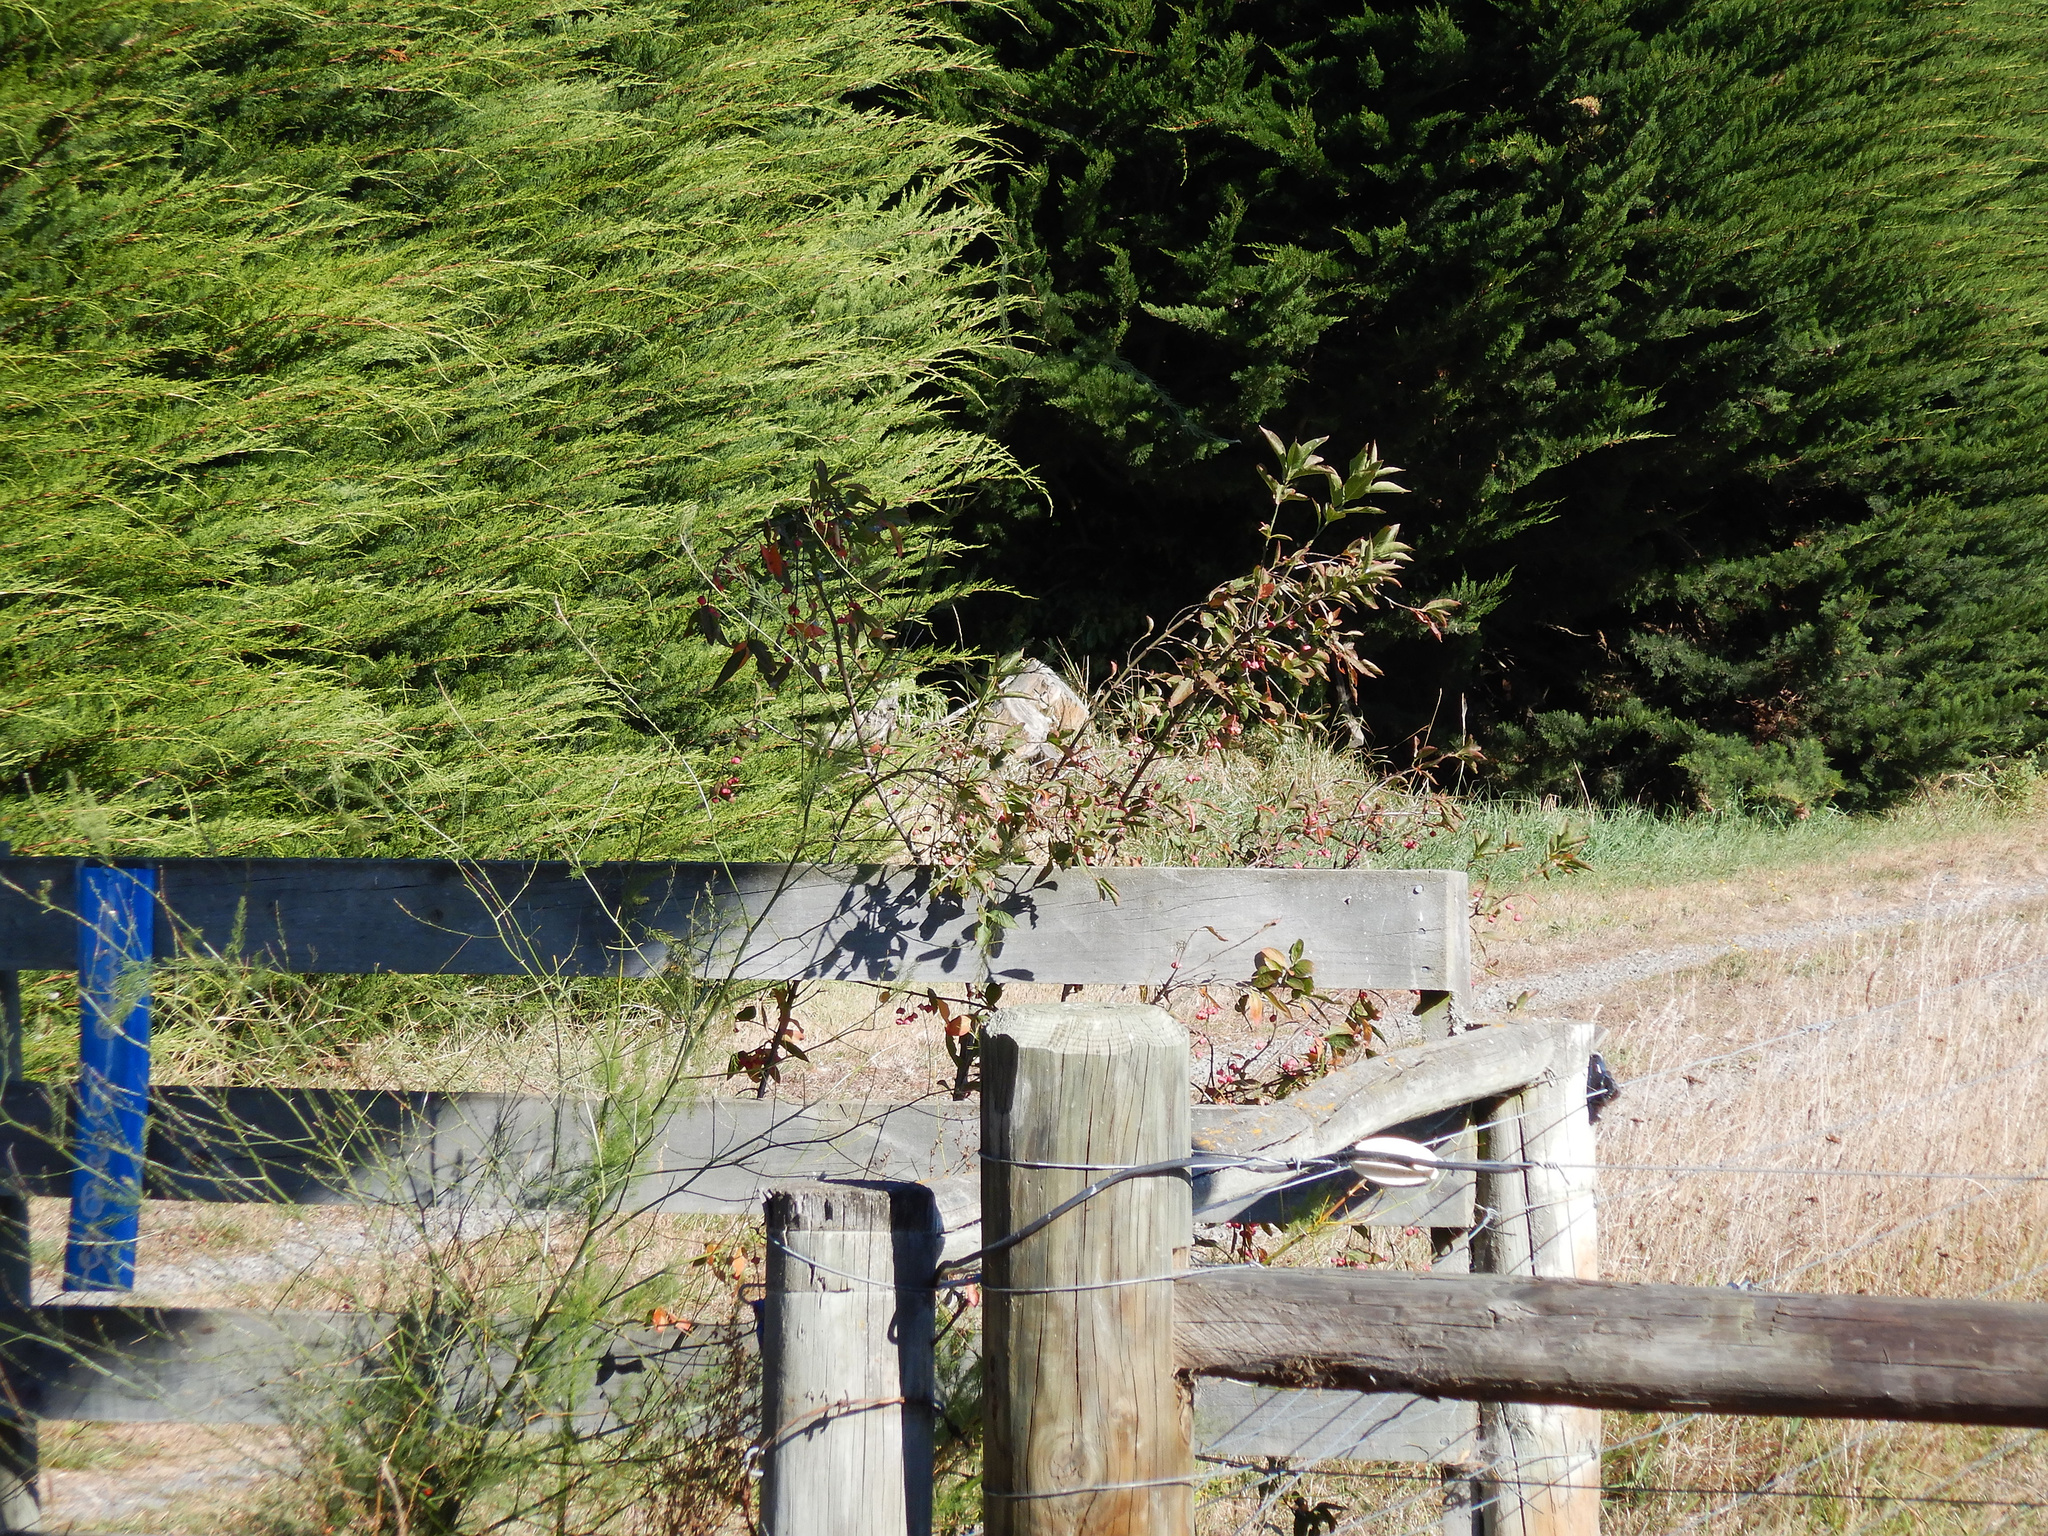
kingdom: Plantae
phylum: Tracheophyta
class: Magnoliopsida
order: Celastrales
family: Celastraceae
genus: Euonymus
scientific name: Euonymus europaeus
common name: Spindle
